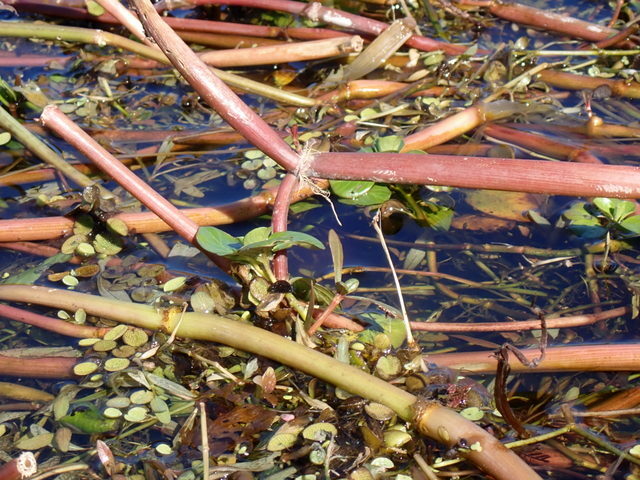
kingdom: Plantae
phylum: Tracheophyta
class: Magnoliopsida
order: Caryophyllales
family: Amaranthaceae
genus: Alternanthera
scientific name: Alternanthera philoxeroides
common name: Alligatorweed
